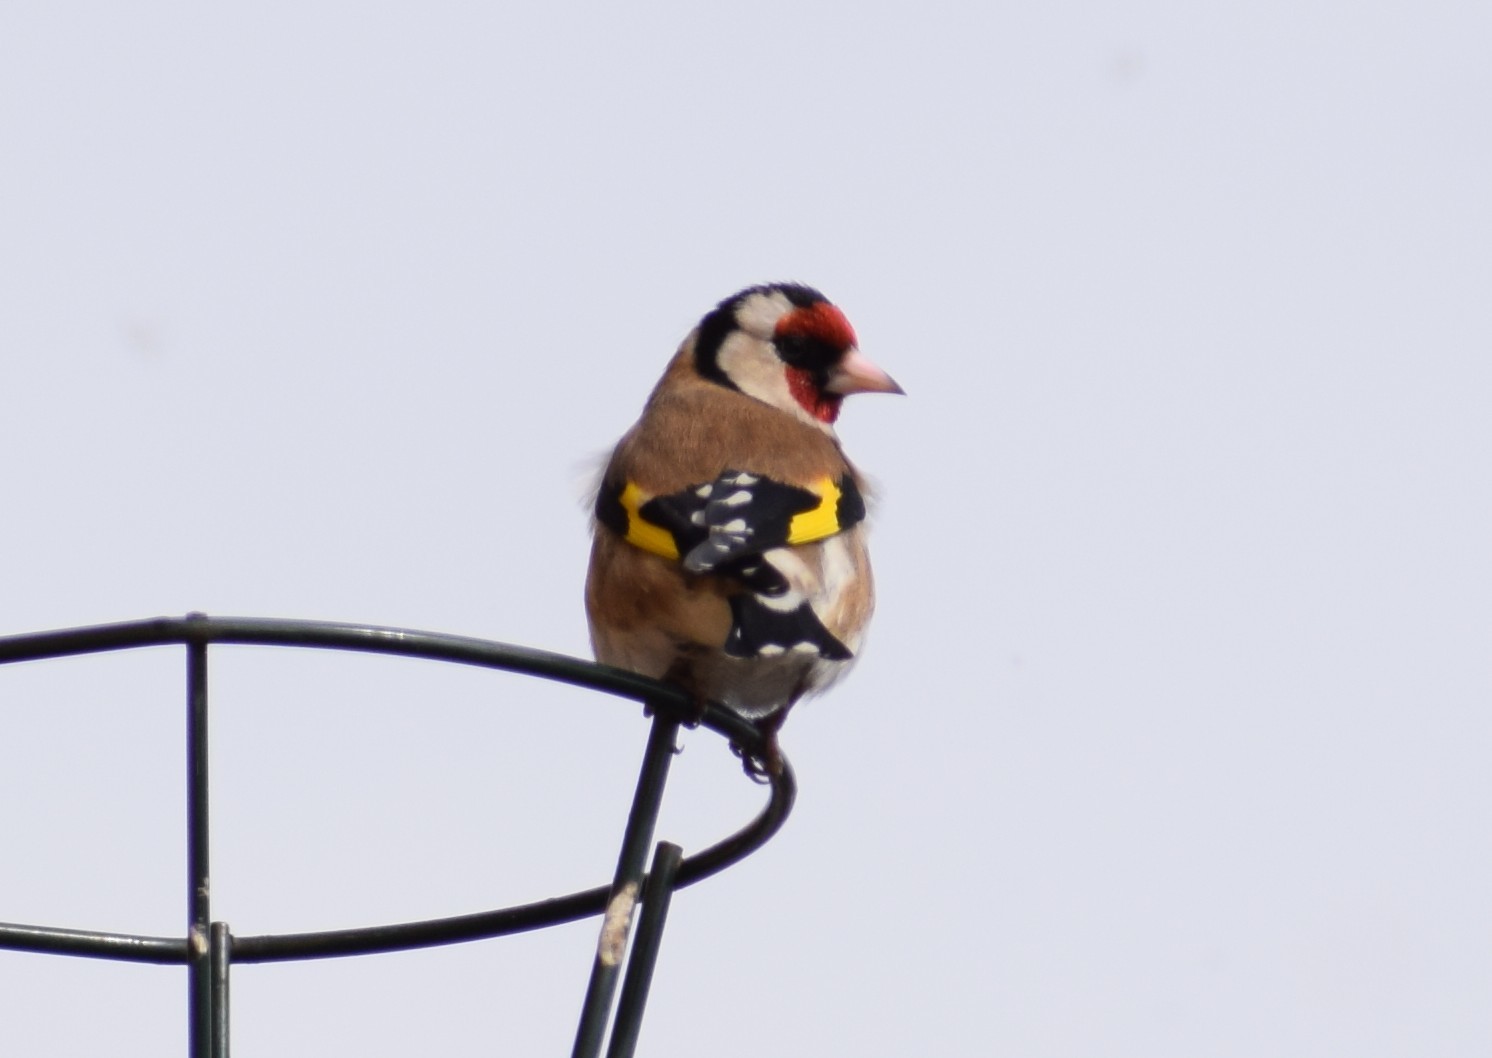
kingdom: Animalia
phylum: Chordata
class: Aves
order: Passeriformes
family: Fringillidae
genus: Carduelis
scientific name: Carduelis carduelis
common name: European goldfinch
